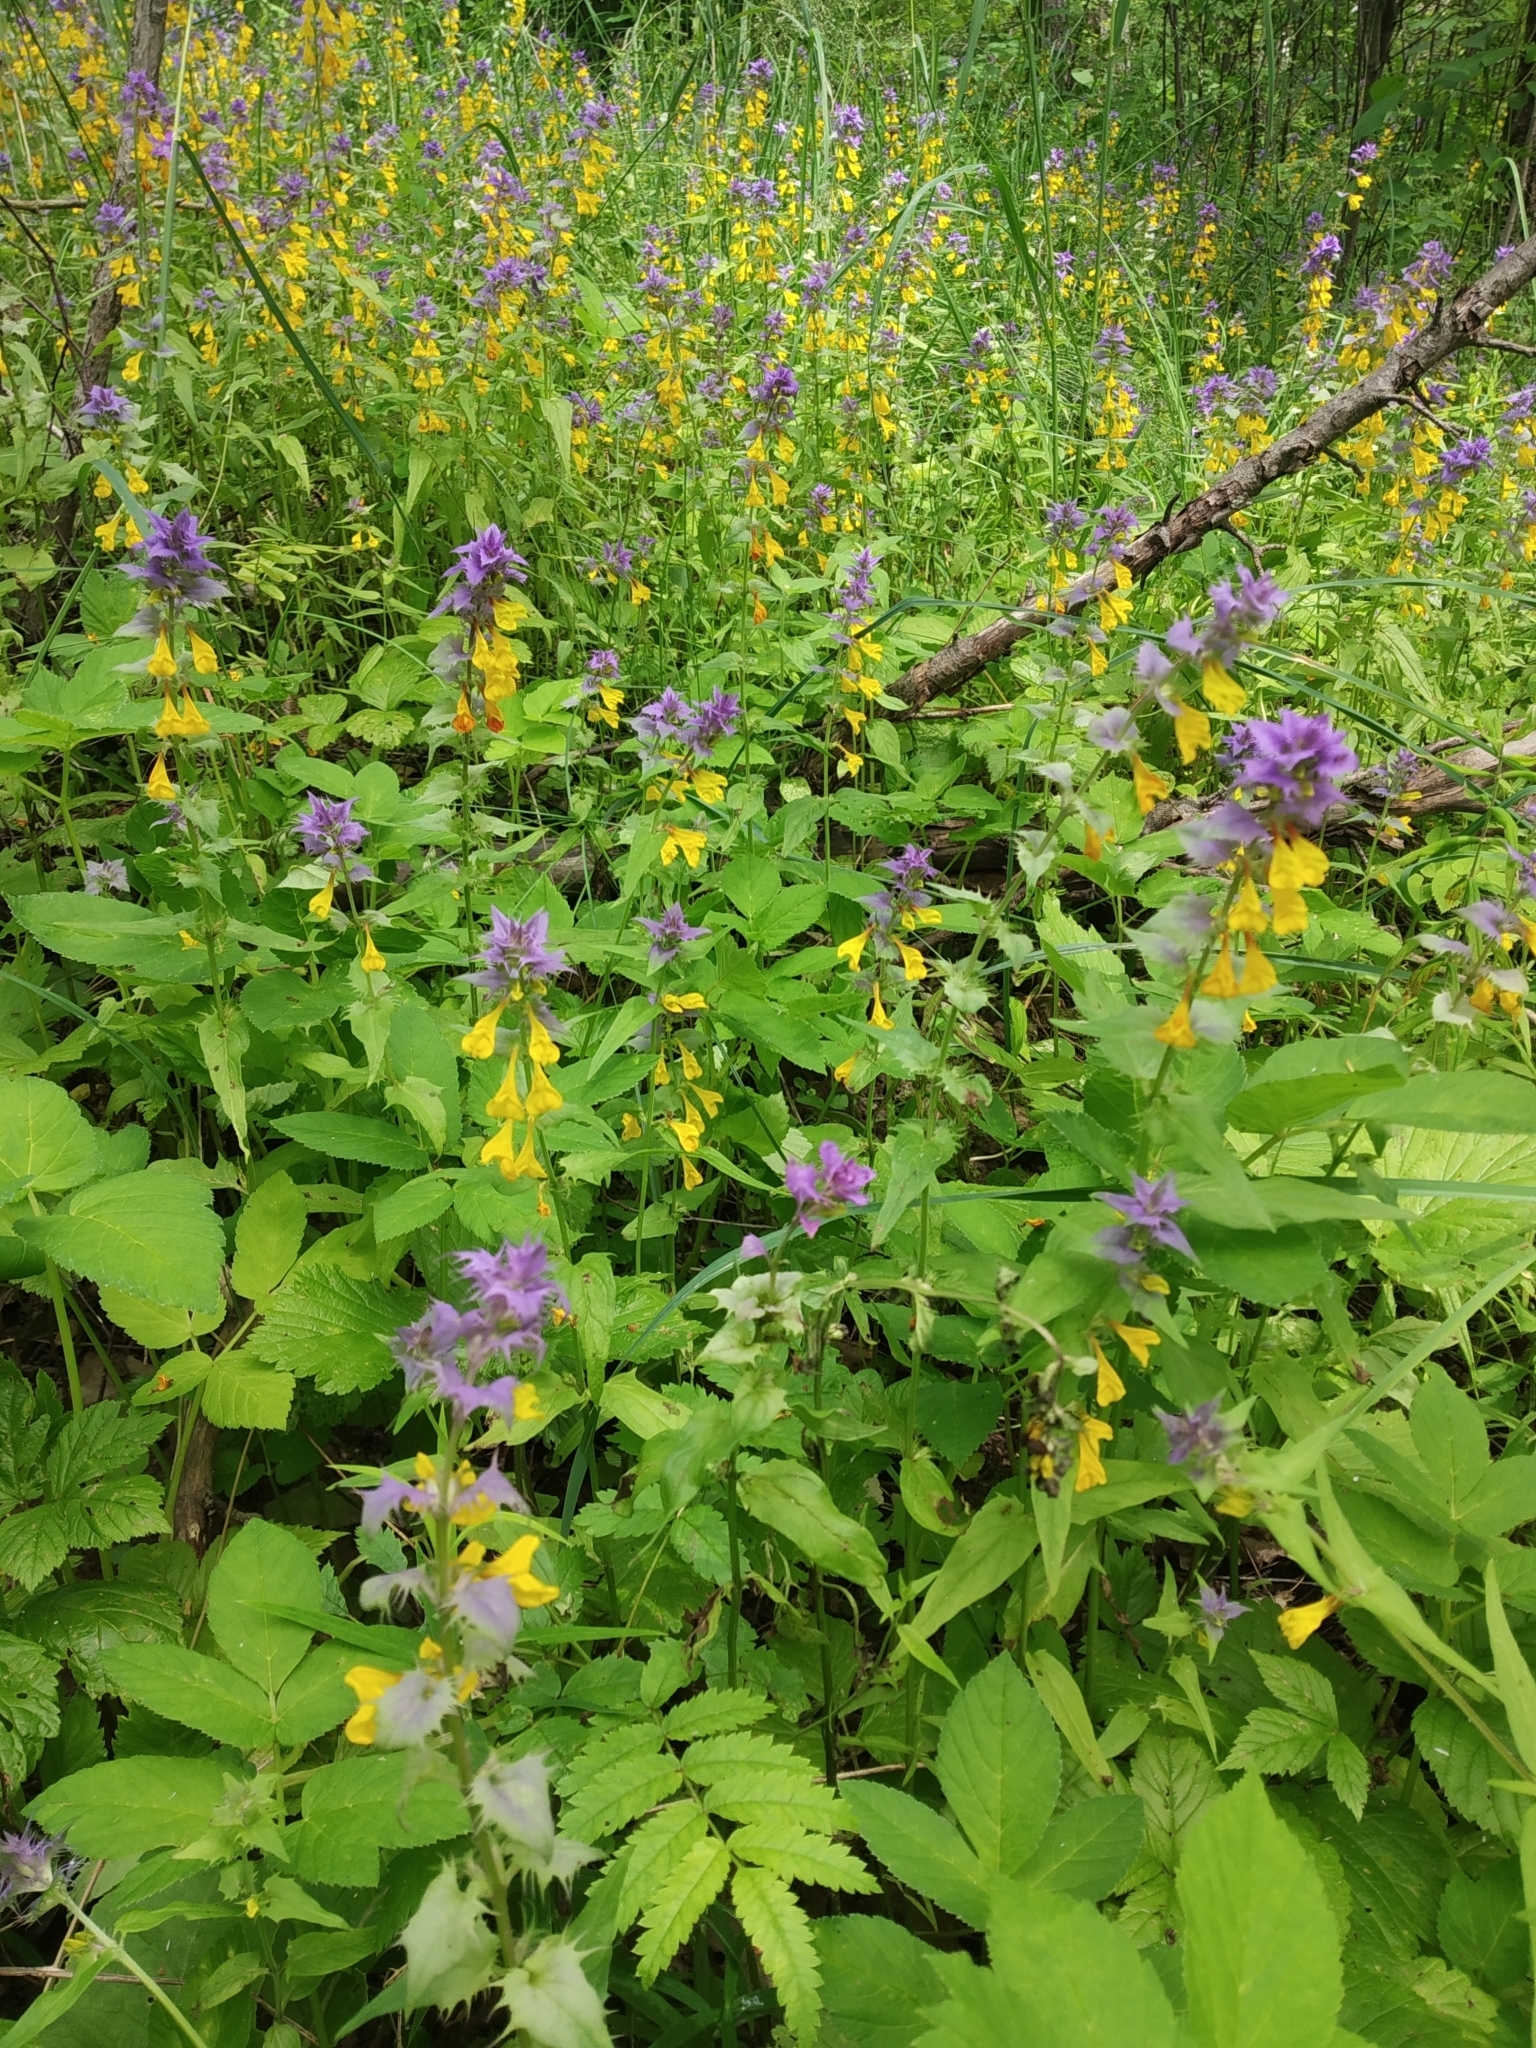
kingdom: Plantae
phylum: Tracheophyta
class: Magnoliopsida
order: Lamiales
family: Orobanchaceae
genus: Melampyrum
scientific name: Melampyrum nemorosum
